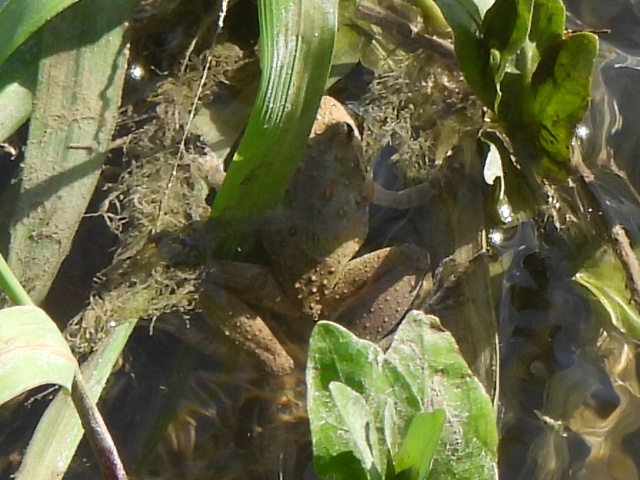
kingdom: Animalia
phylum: Chordata
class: Amphibia
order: Anura
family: Hylidae
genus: Acris
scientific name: Acris blanchardi
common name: Blanchard's cricket frog
